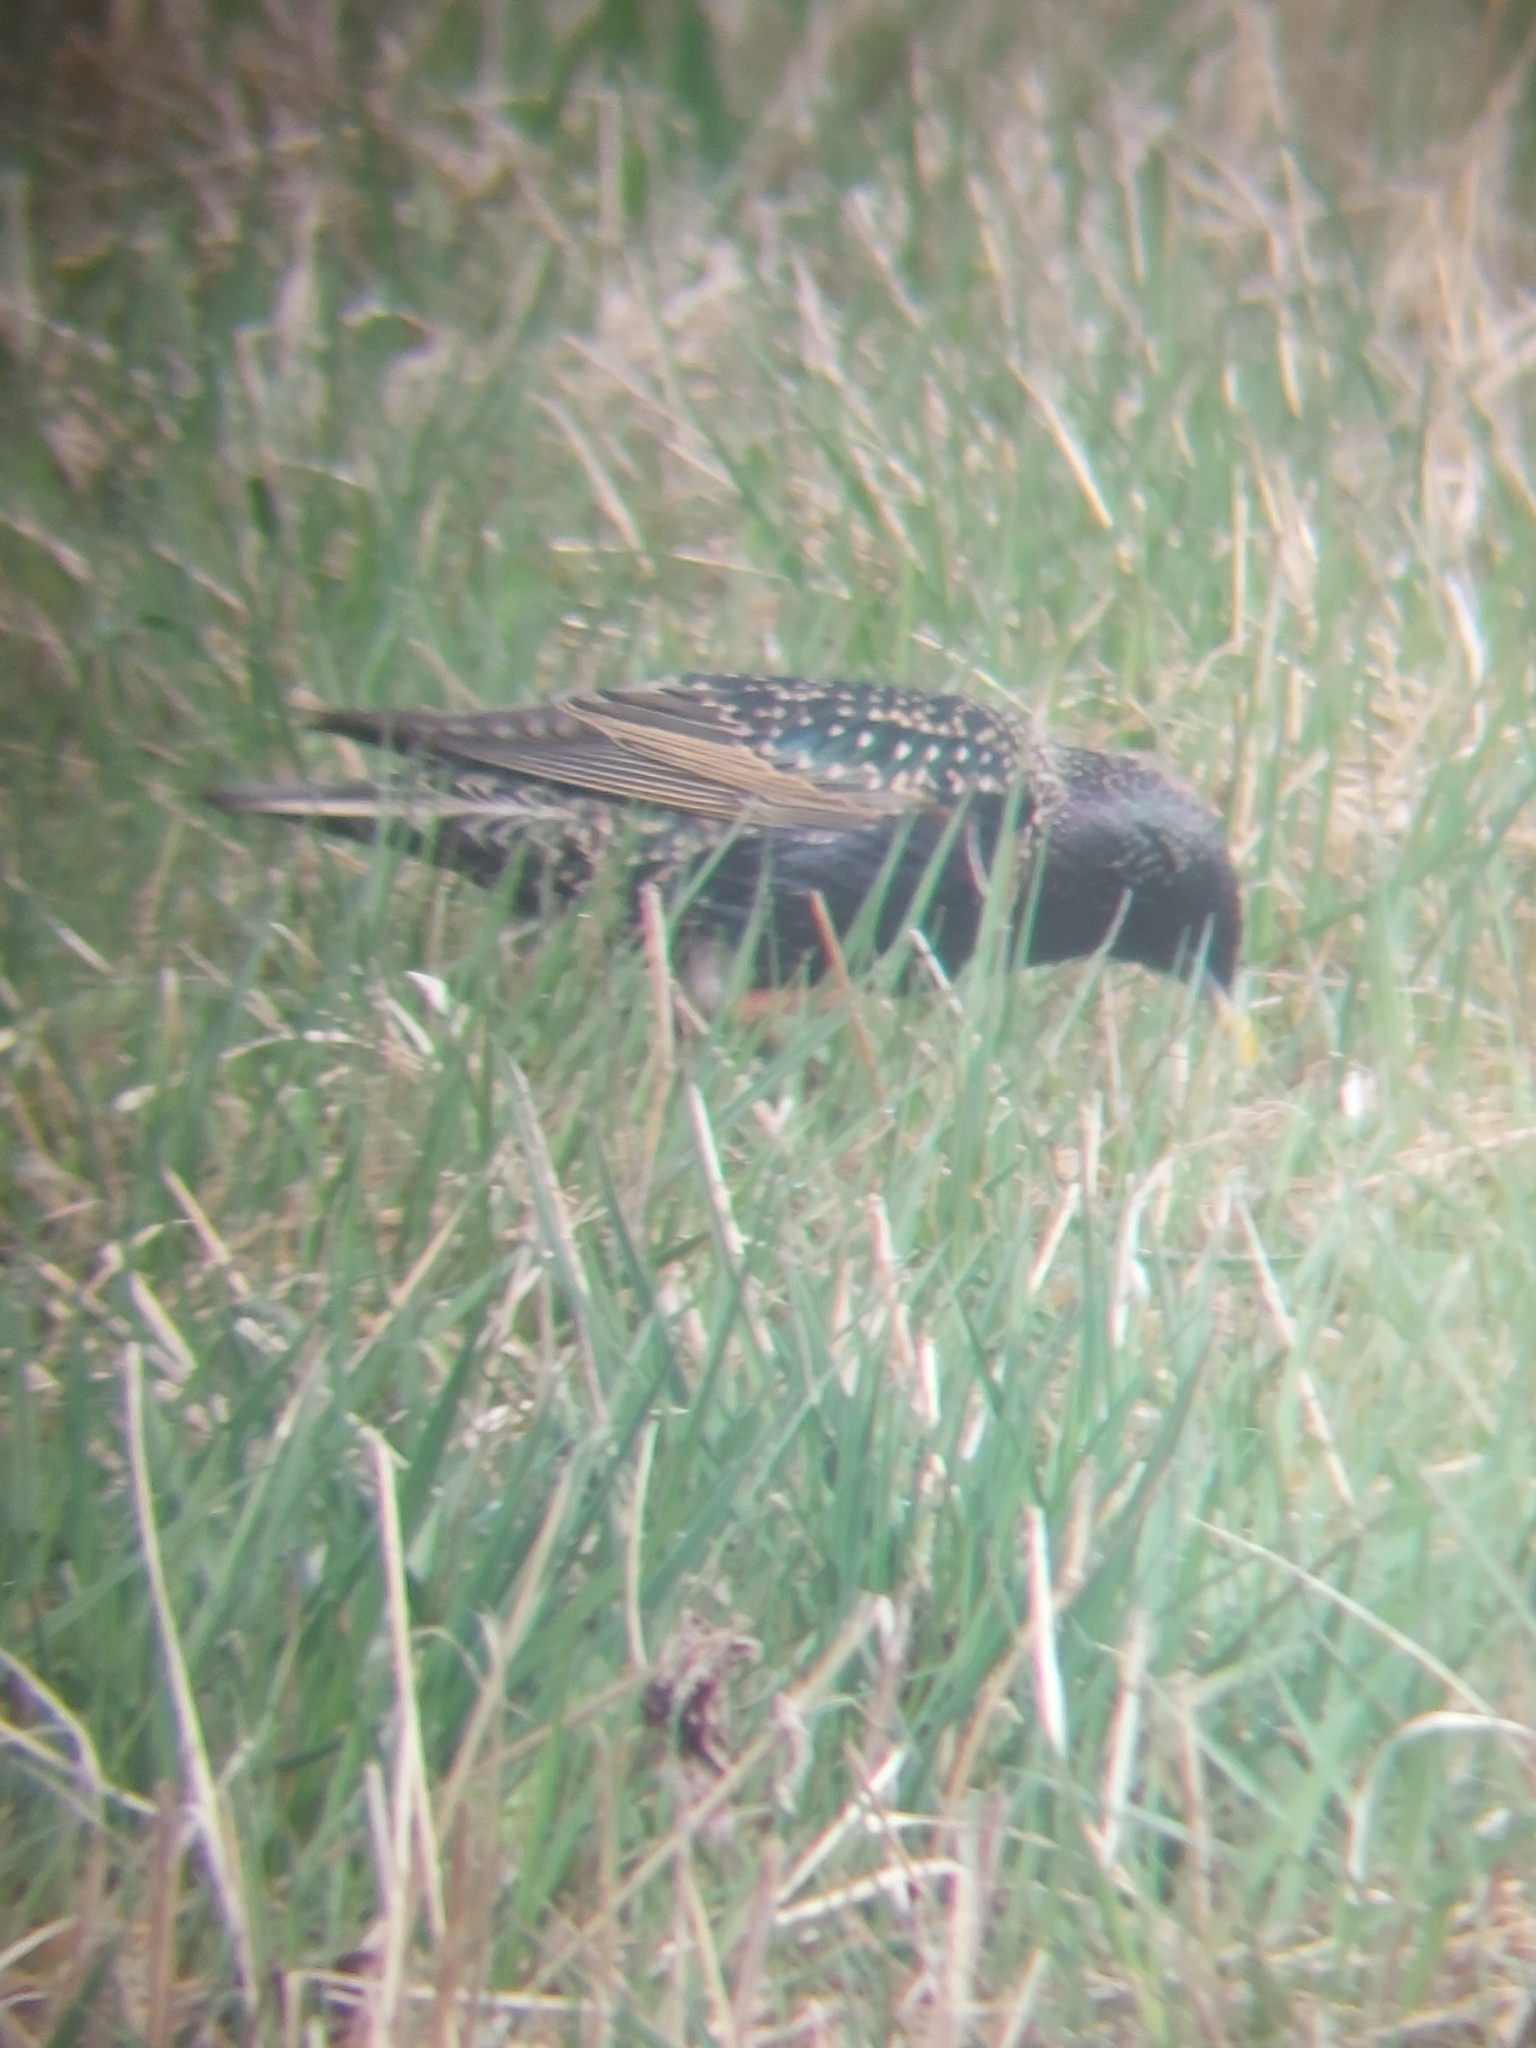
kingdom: Animalia
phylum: Chordata
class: Aves
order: Passeriformes
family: Sturnidae
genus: Sturnus
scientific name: Sturnus vulgaris
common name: Common starling
